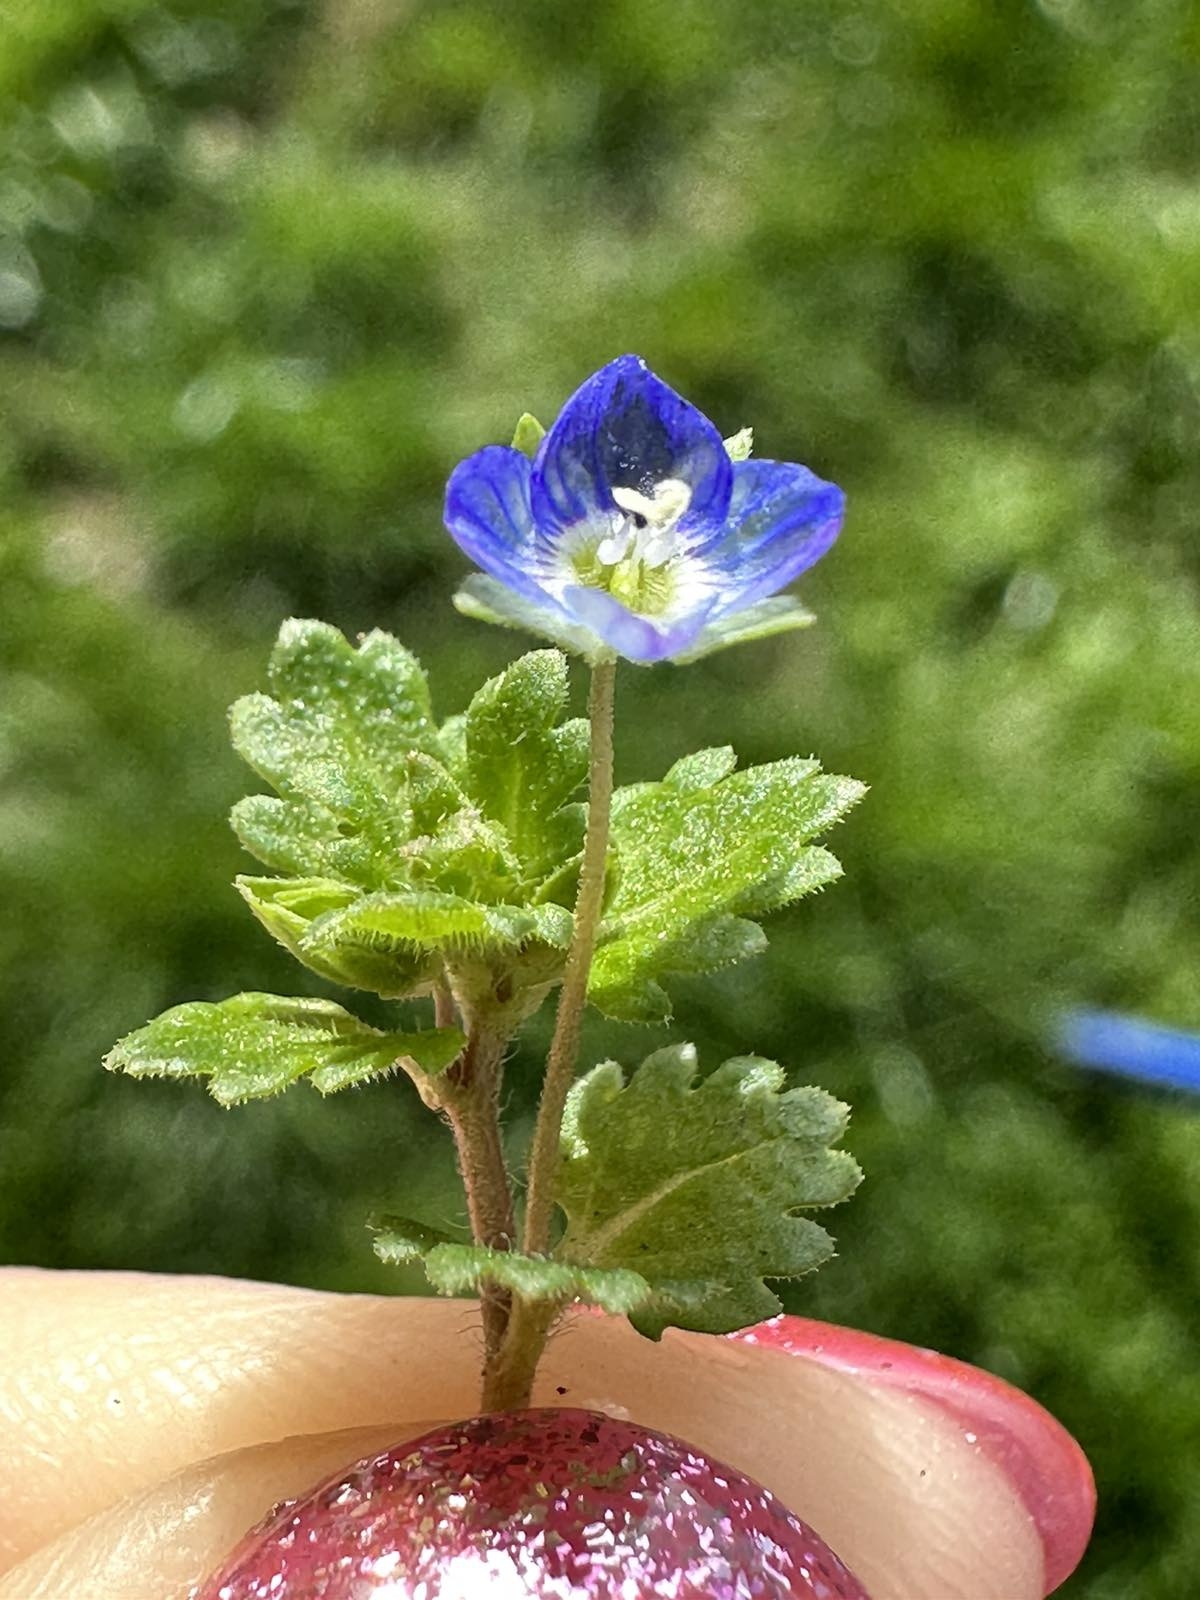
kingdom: Plantae
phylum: Tracheophyta
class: Magnoliopsida
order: Lamiales
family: Plantaginaceae
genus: Veronica
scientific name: Veronica polita
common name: Grey field-speedwell
